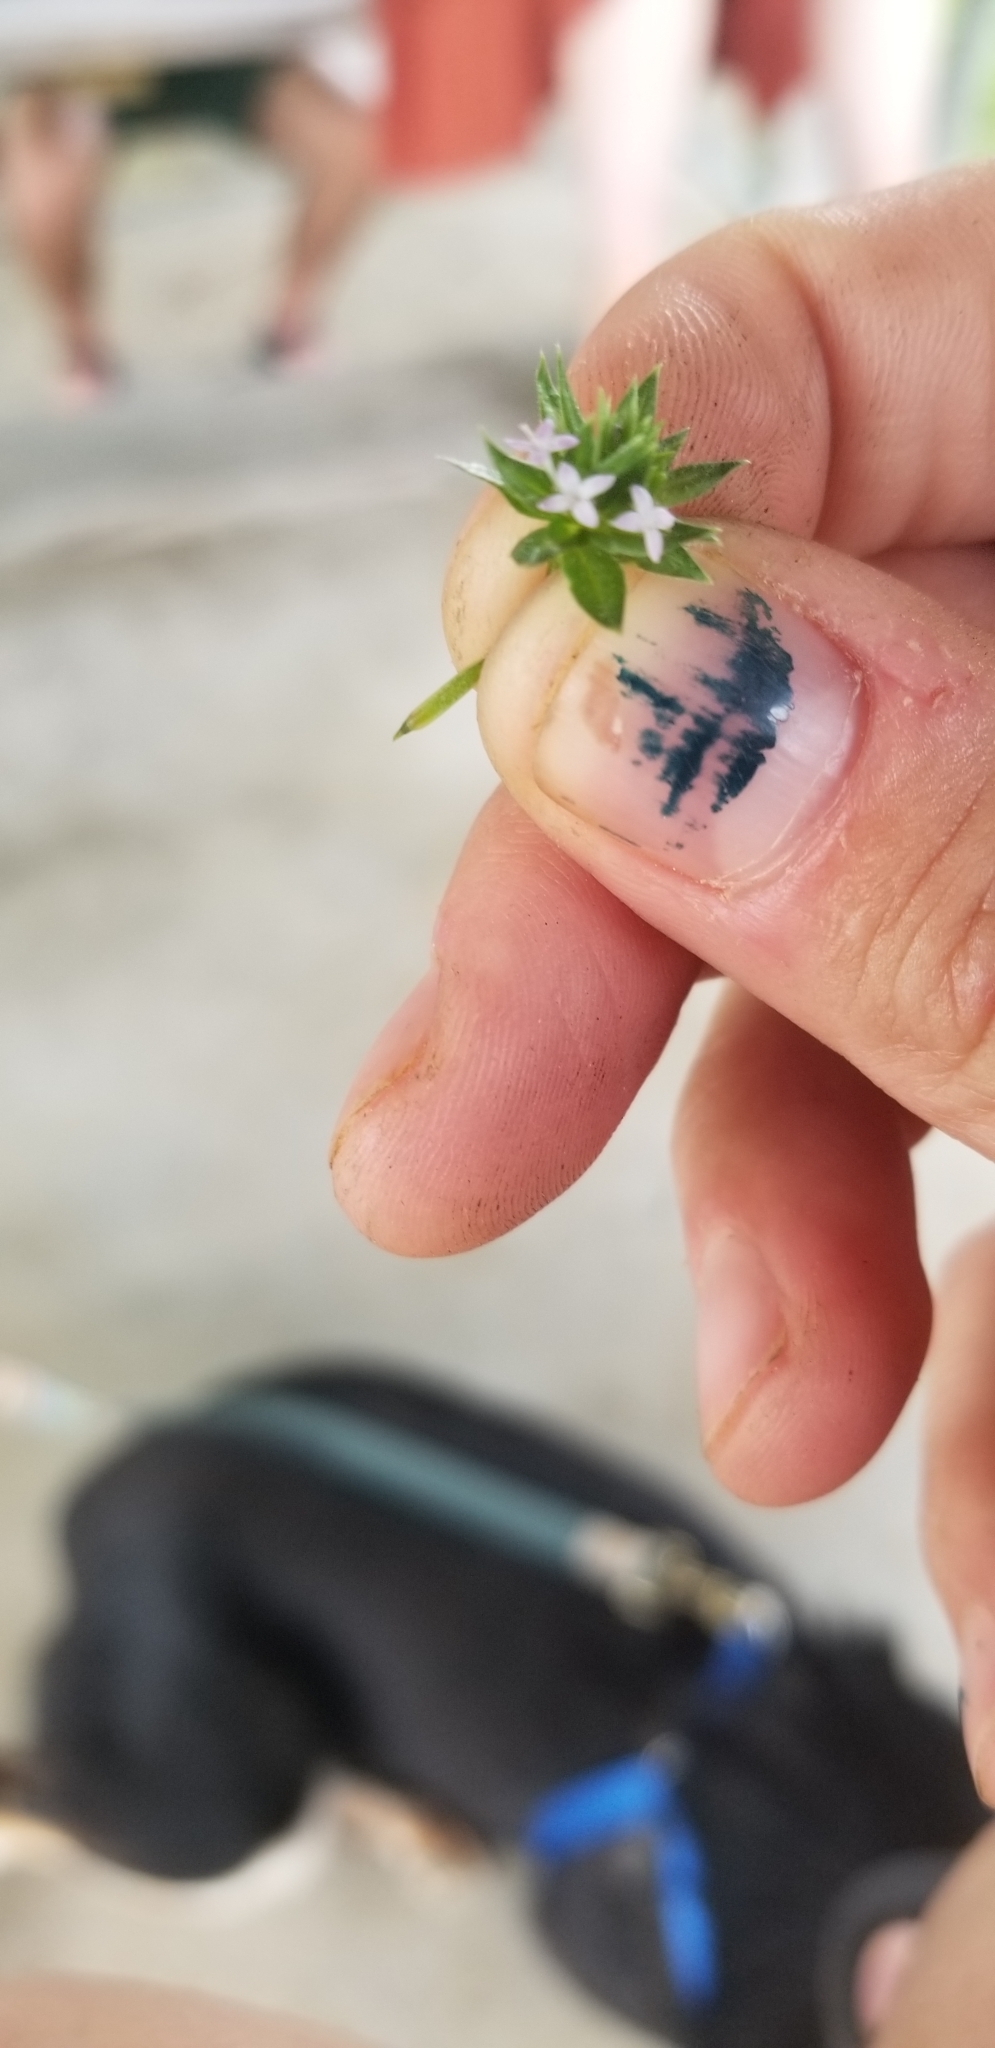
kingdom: Plantae
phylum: Tracheophyta
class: Magnoliopsida
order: Gentianales
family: Rubiaceae
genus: Sherardia
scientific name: Sherardia arvensis
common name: Field madder
